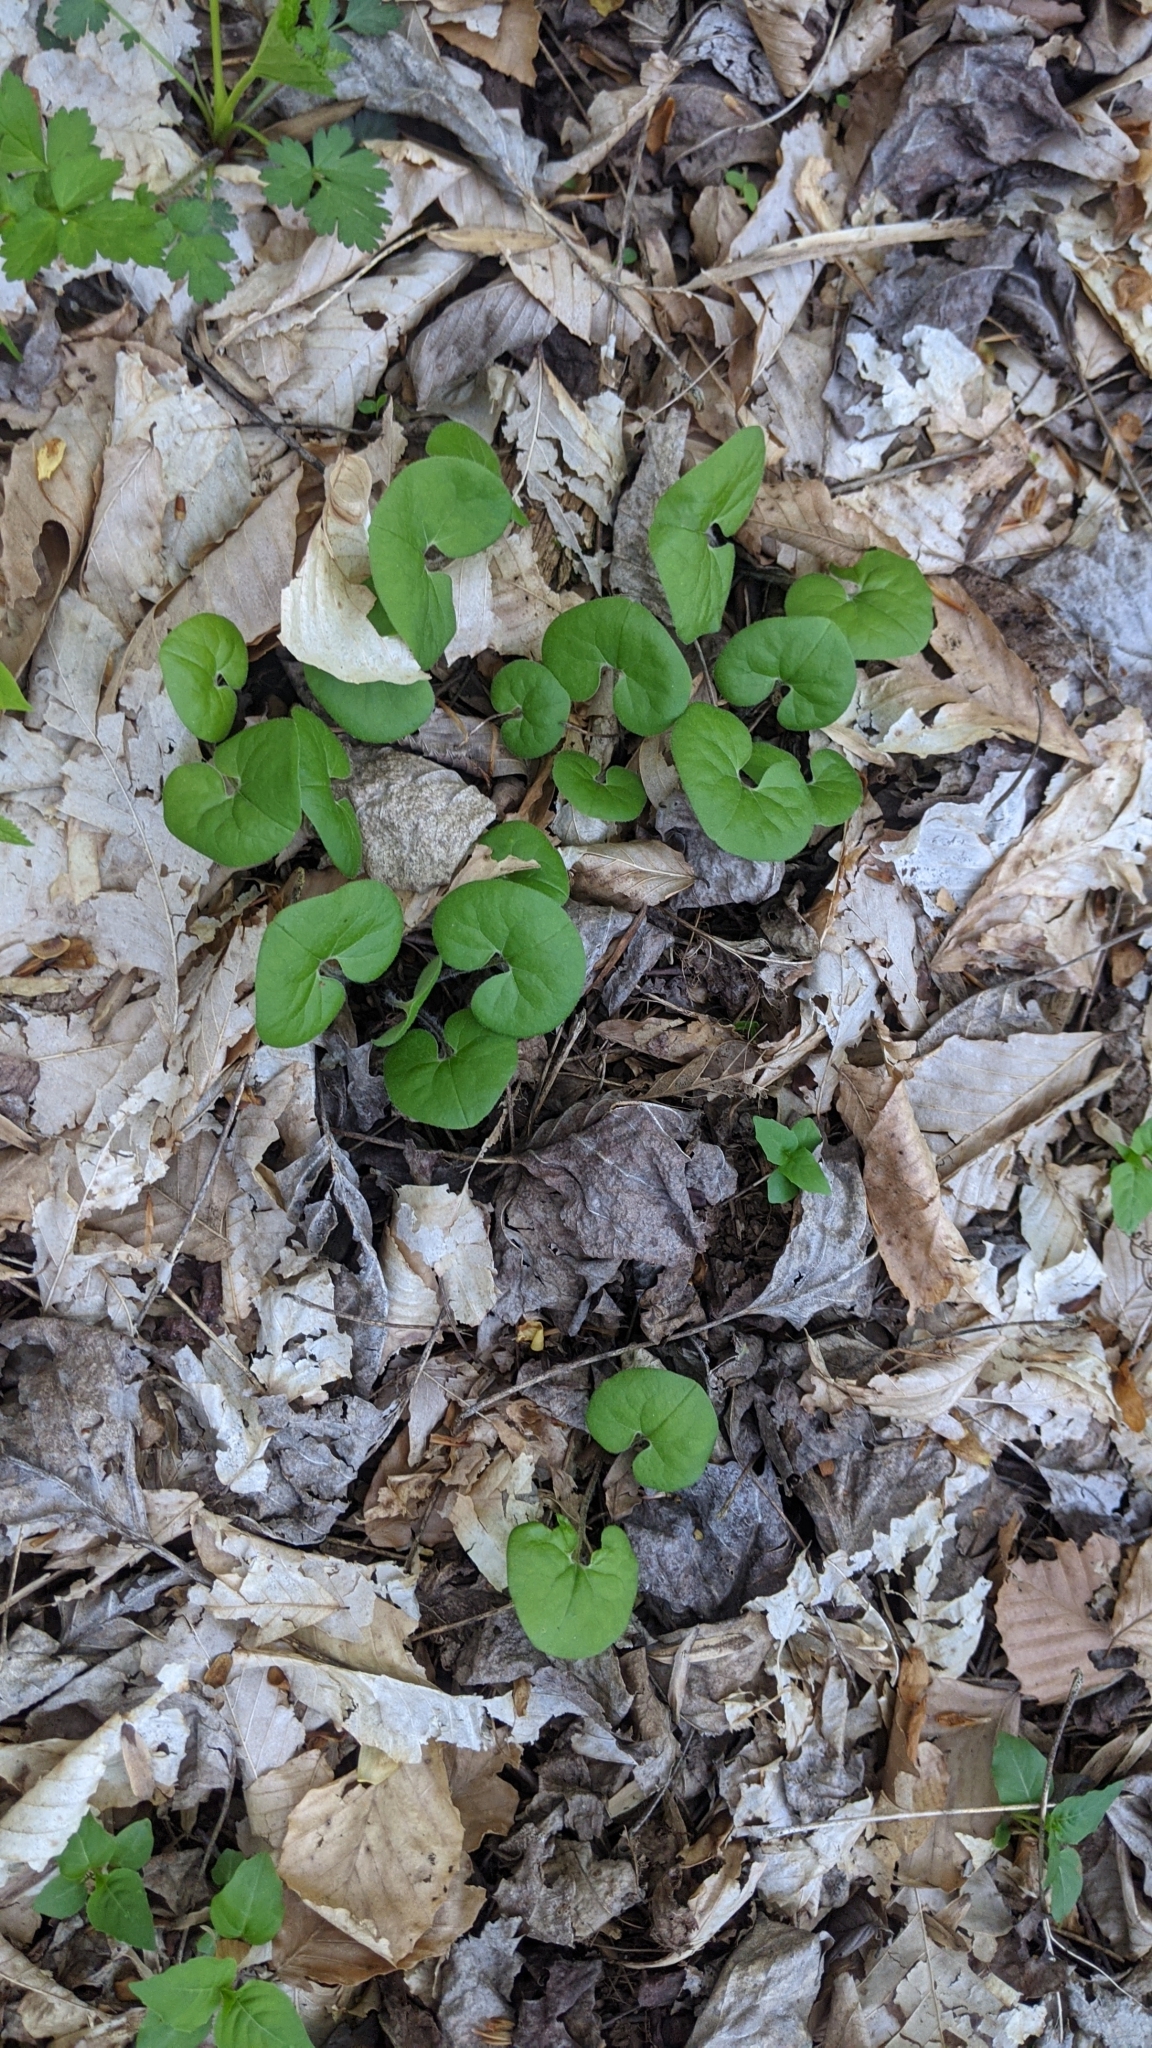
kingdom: Plantae
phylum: Tracheophyta
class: Magnoliopsida
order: Piperales
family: Aristolochiaceae
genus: Asarum
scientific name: Asarum canadense
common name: Wild ginger
